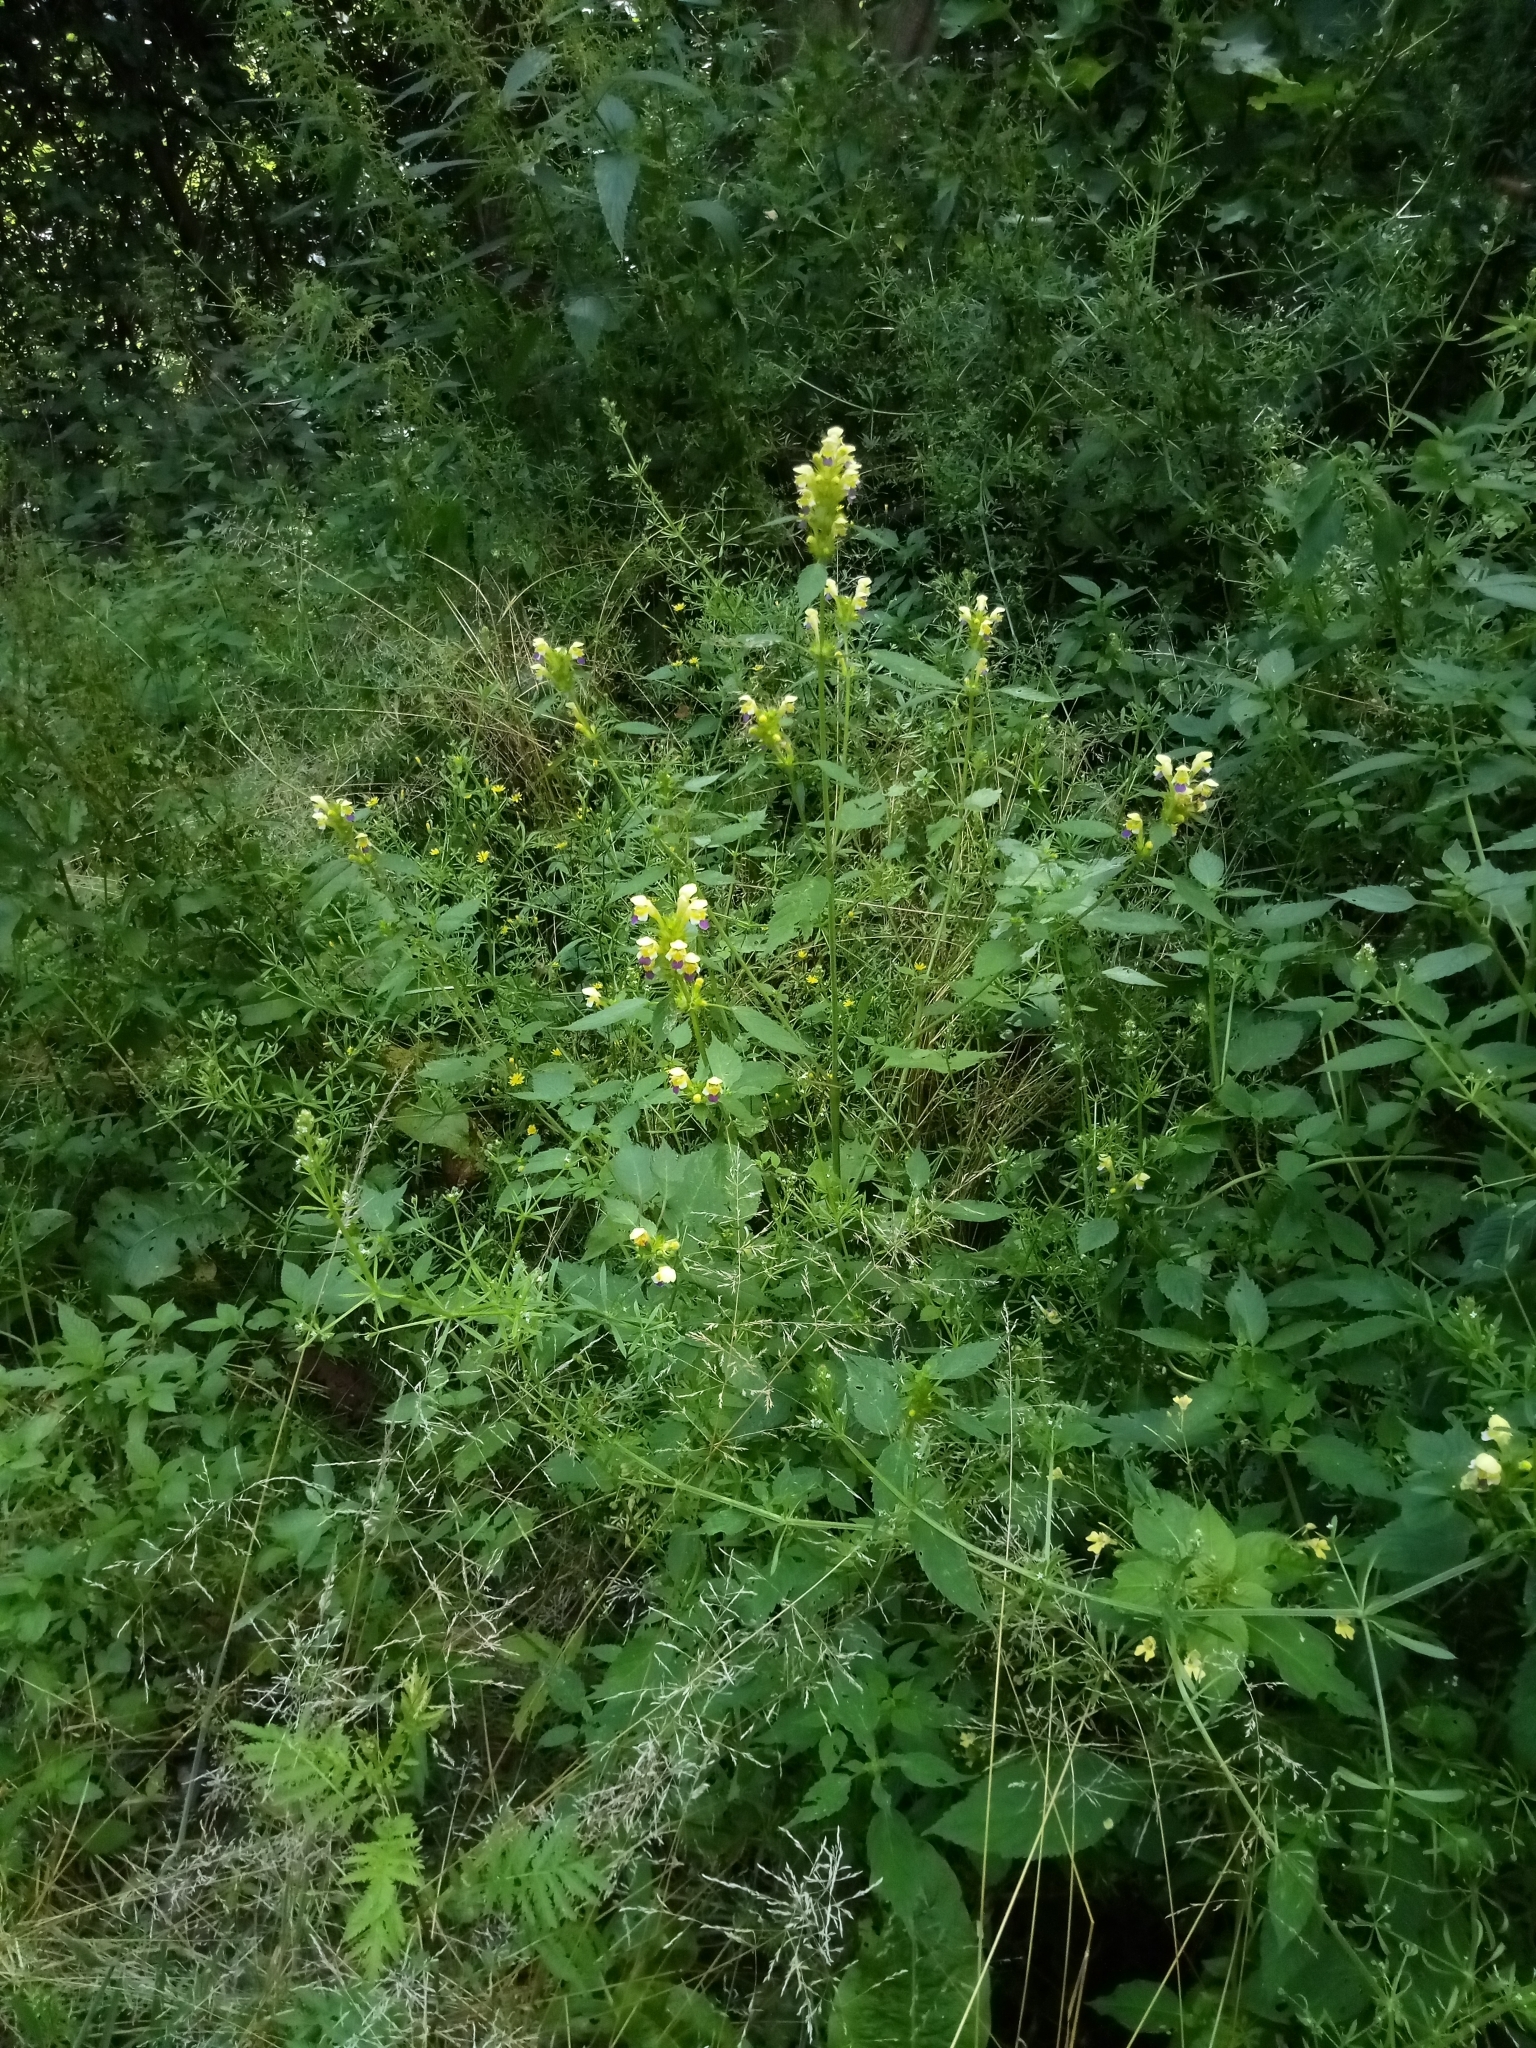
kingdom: Plantae
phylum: Tracheophyta
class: Magnoliopsida
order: Lamiales
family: Lamiaceae
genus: Galeopsis
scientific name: Galeopsis speciosa
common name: Large-flowered hemp-nettle
